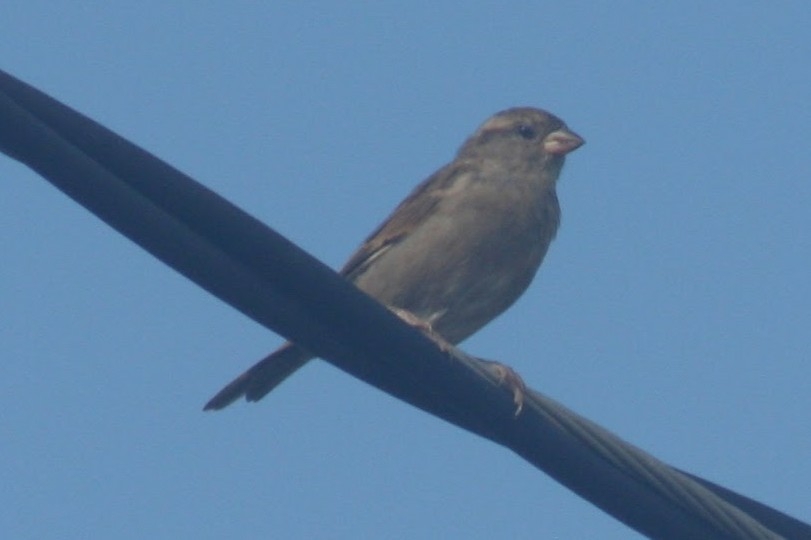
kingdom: Animalia
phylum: Chordata
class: Aves
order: Passeriformes
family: Passeridae
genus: Passer
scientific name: Passer domesticus
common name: House sparrow
